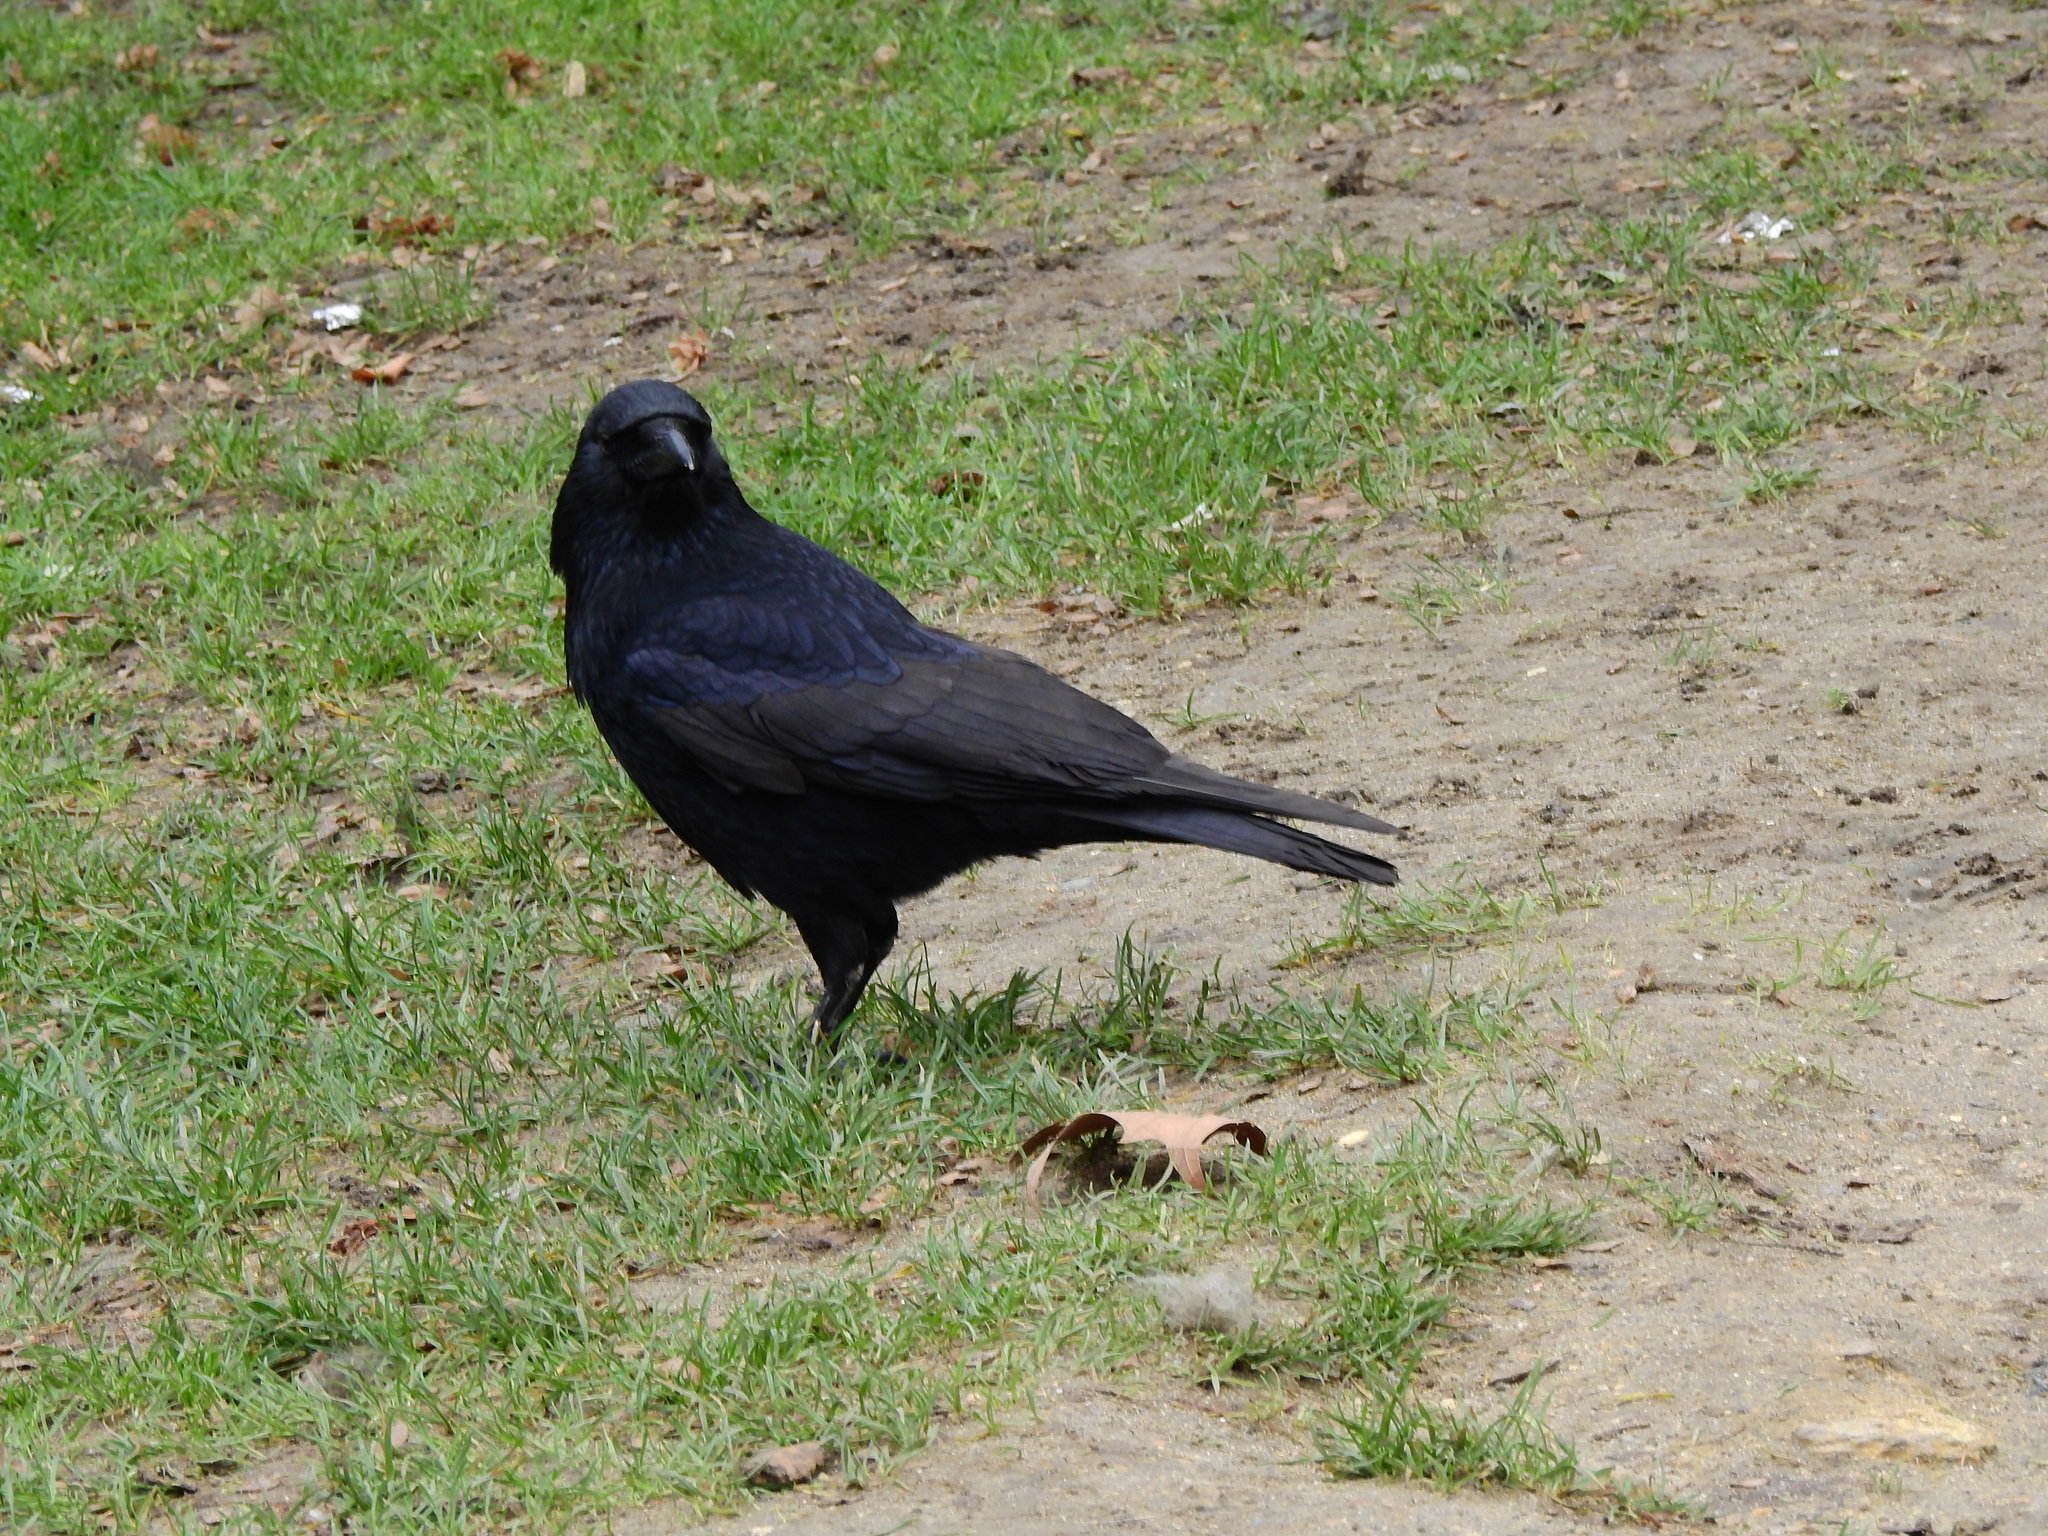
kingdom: Animalia
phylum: Chordata
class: Aves
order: Passeriformes
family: Corvidae
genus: Corvus
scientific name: Corvus corone
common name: Carrion crow
